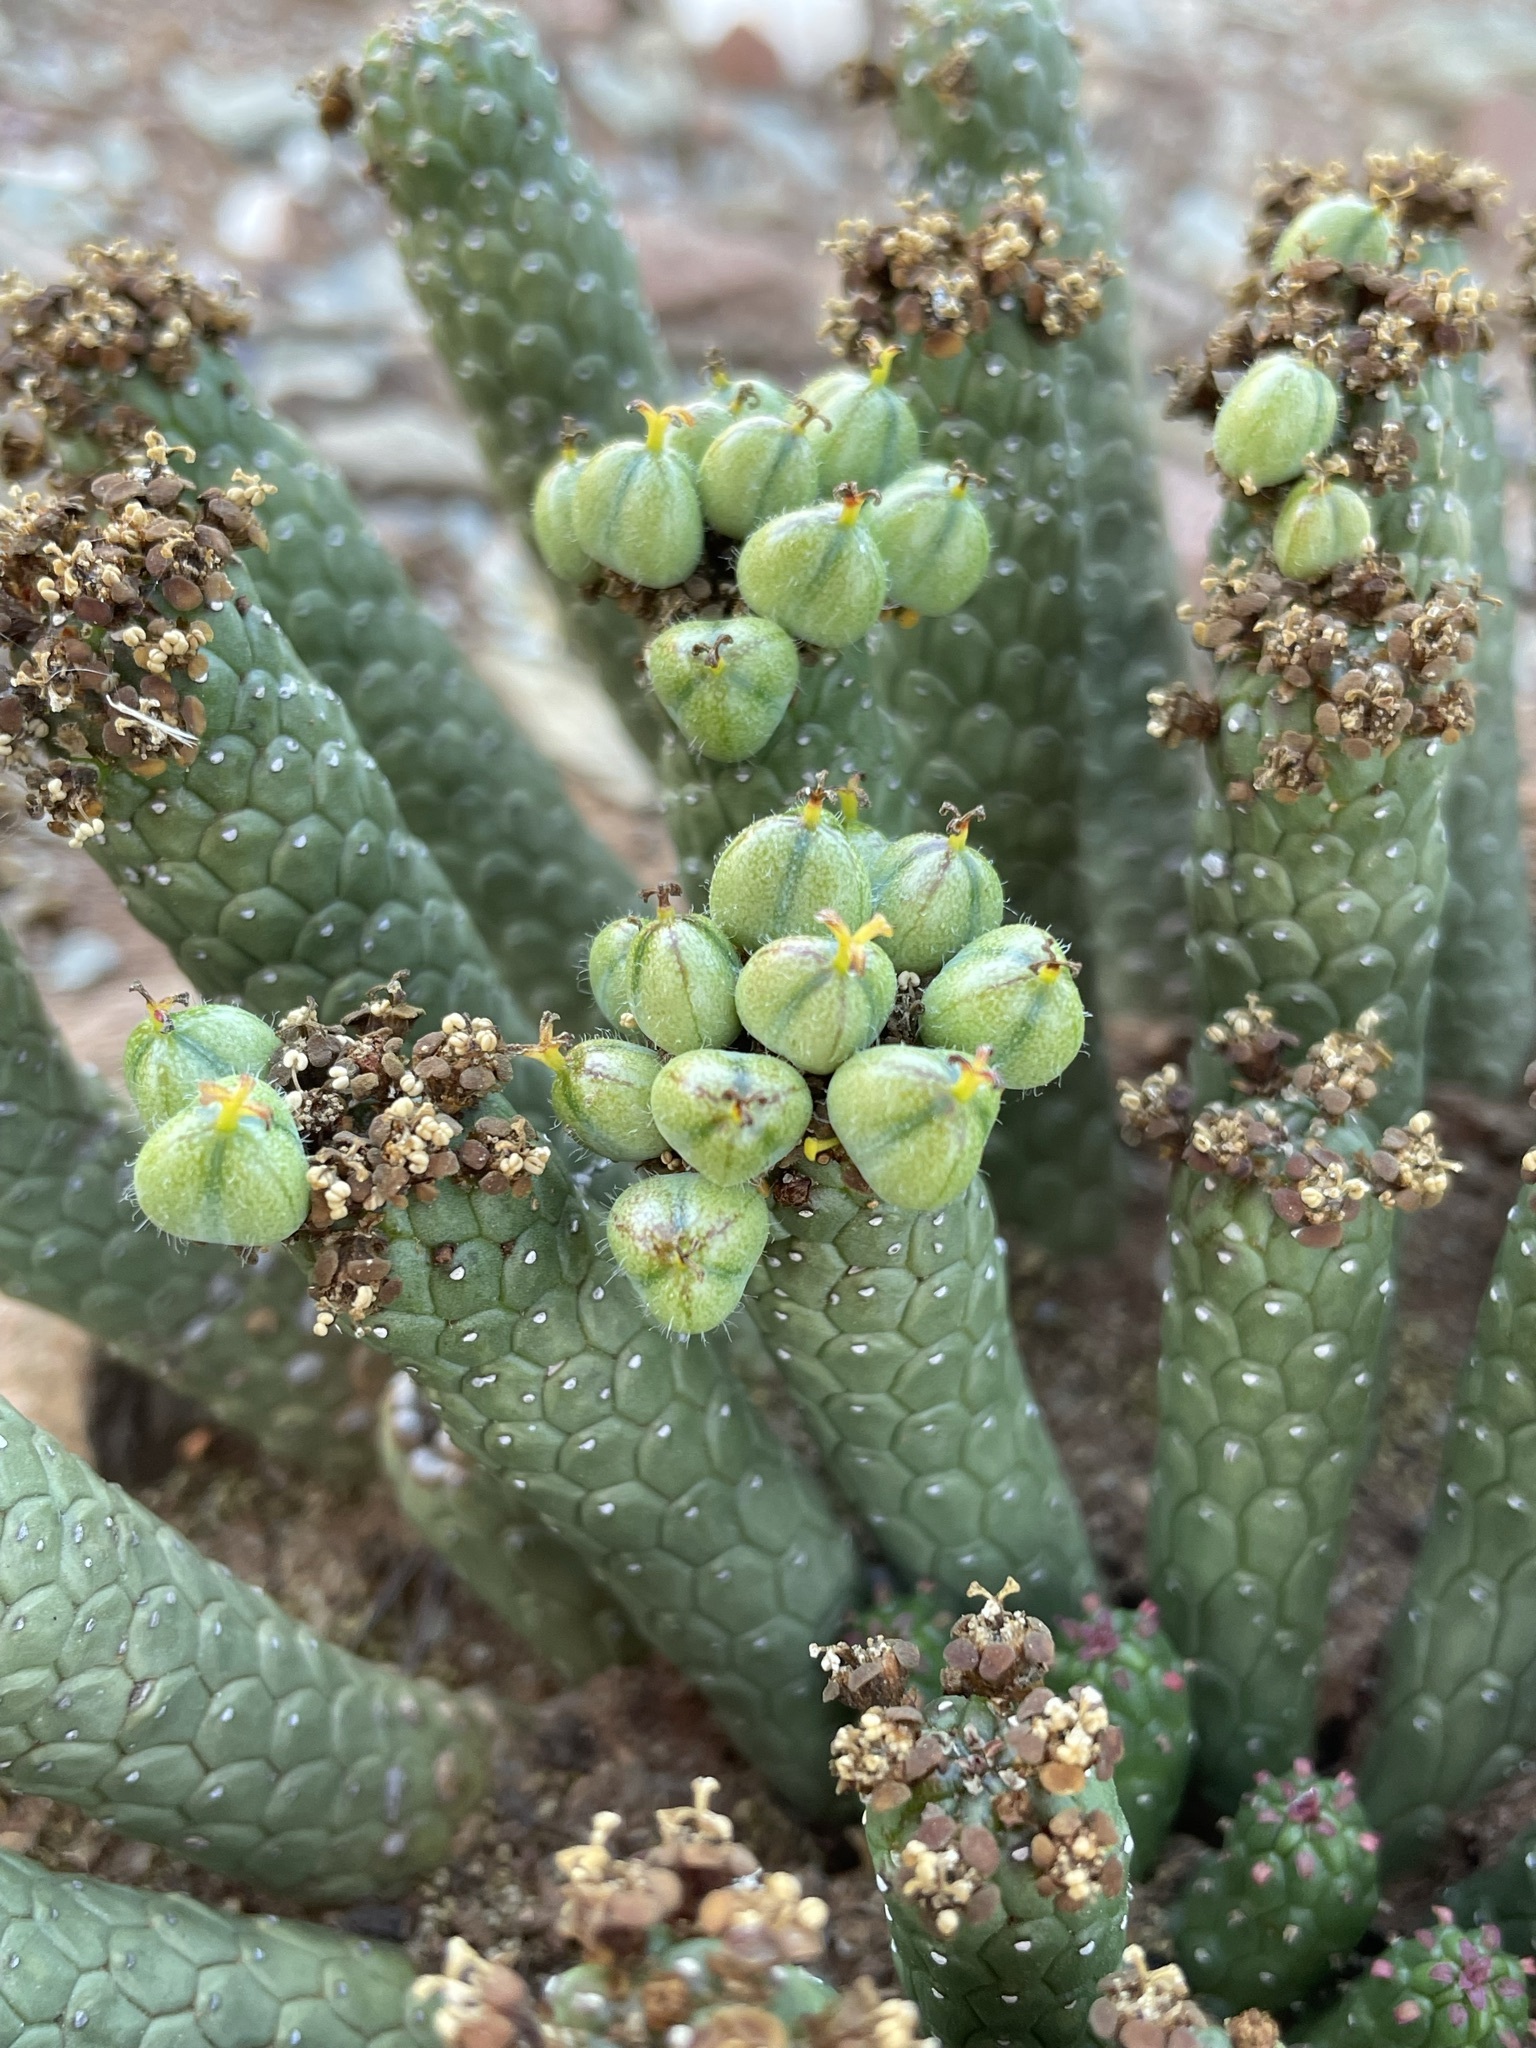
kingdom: Plantae
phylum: Tracheophyta
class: Magnoliopsida
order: Malpighiales
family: Euphorbiaceae
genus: Euphorbia
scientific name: Euphorbia colliculina
